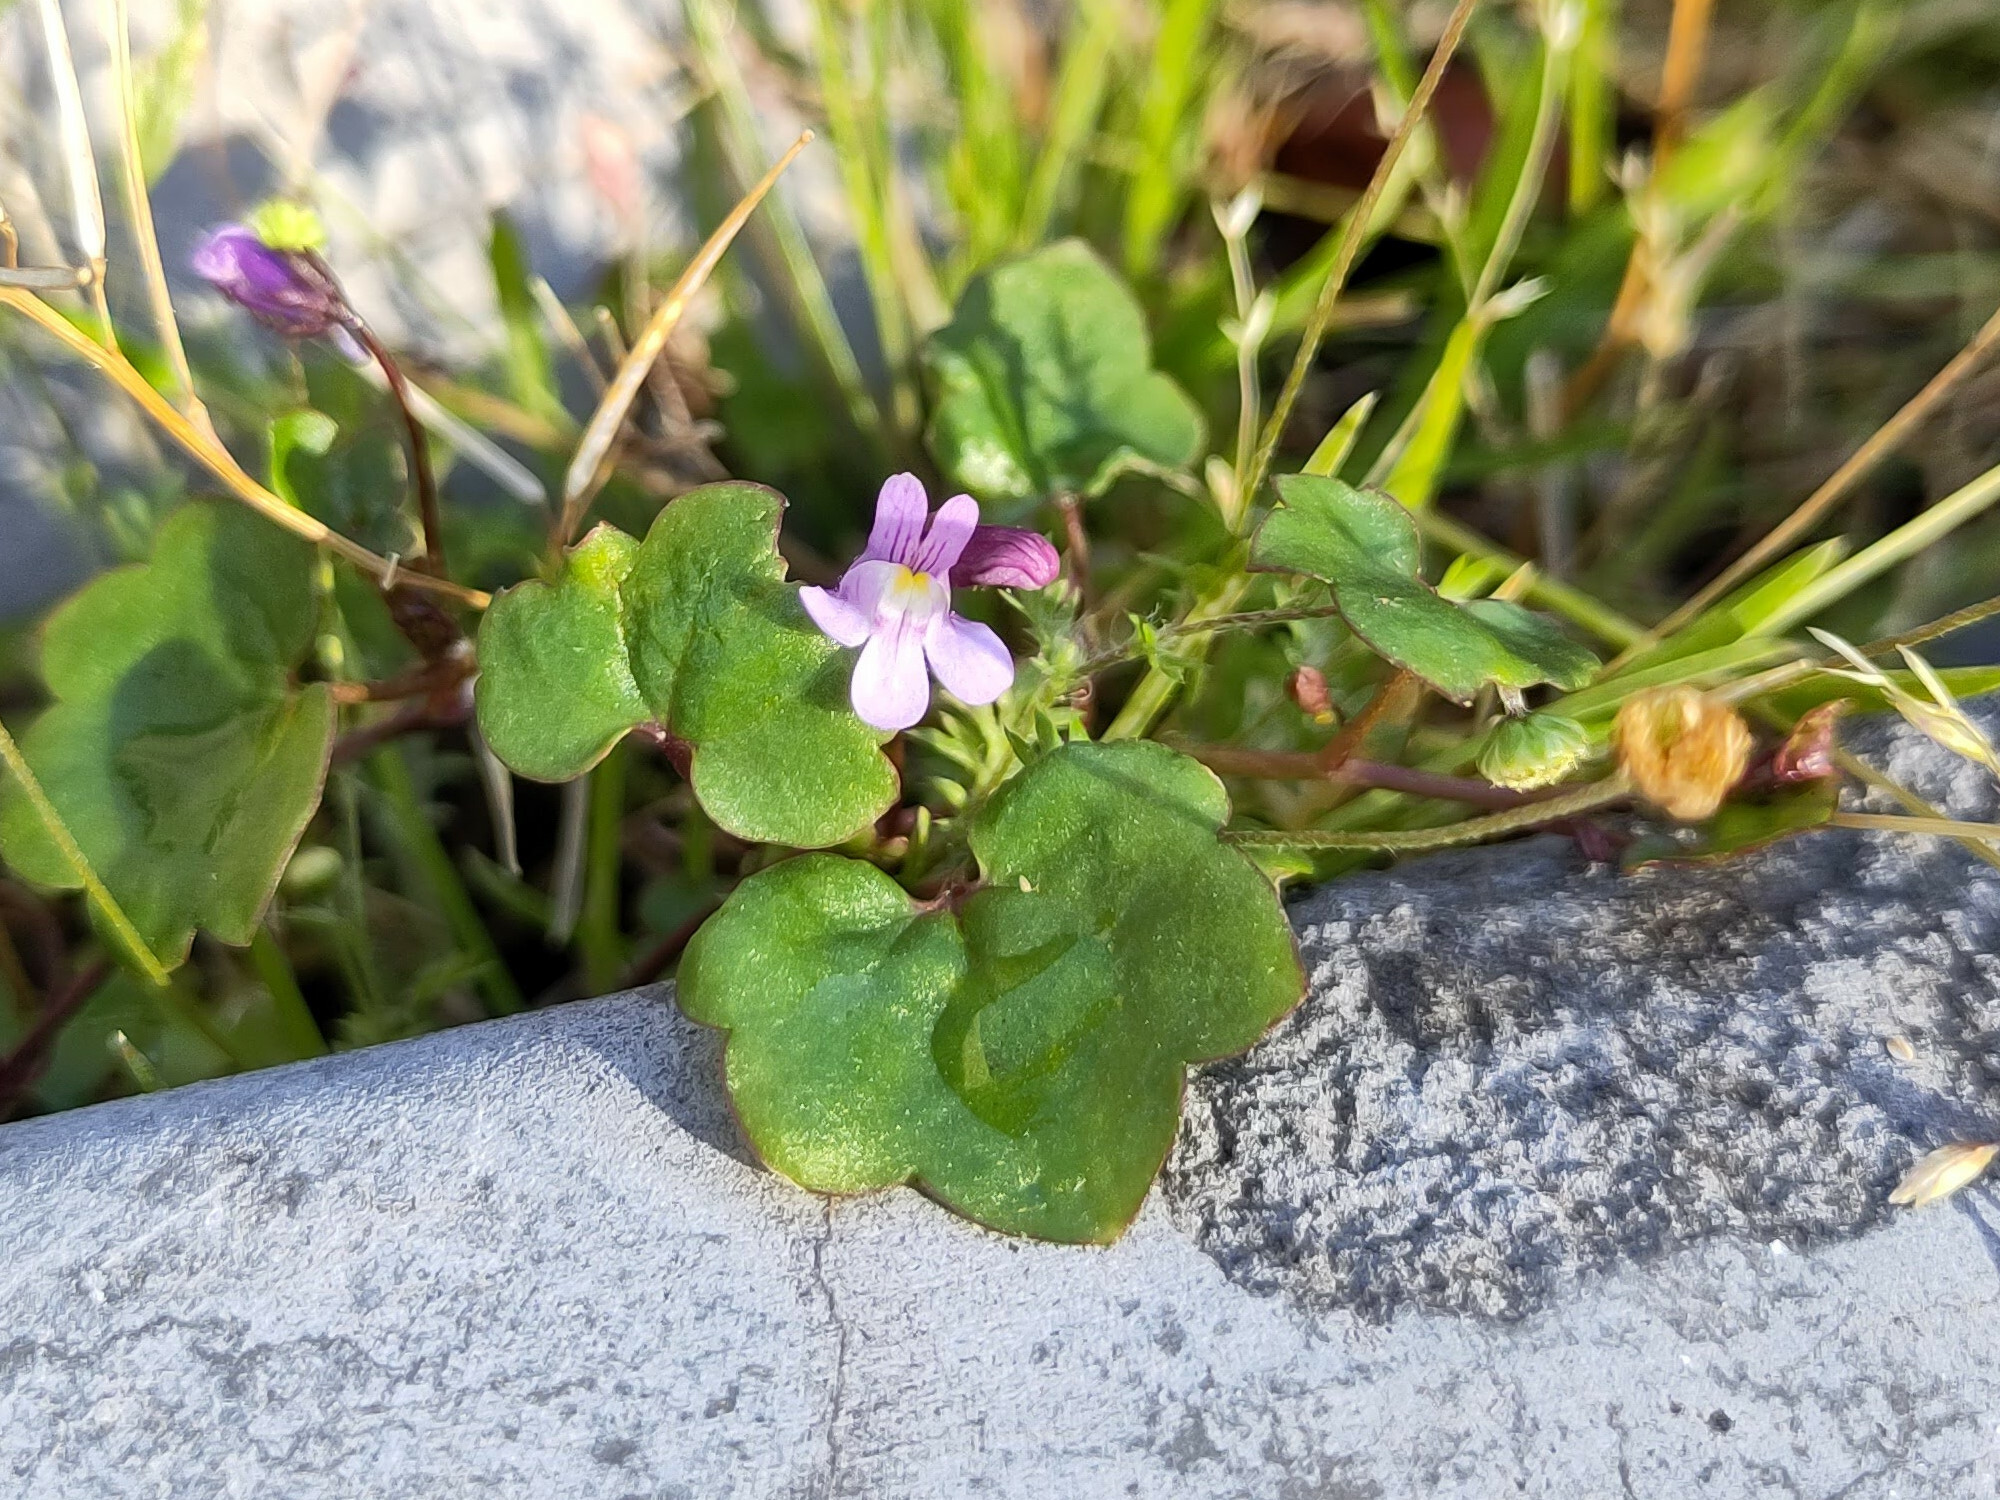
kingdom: Plantae
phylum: Tracheophyta
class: Magnoliopsida
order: Lamiales
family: Plantaginaceae
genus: Cymbalaria
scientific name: Cymbalaria muralis
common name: Ivy-leaved toadflax
